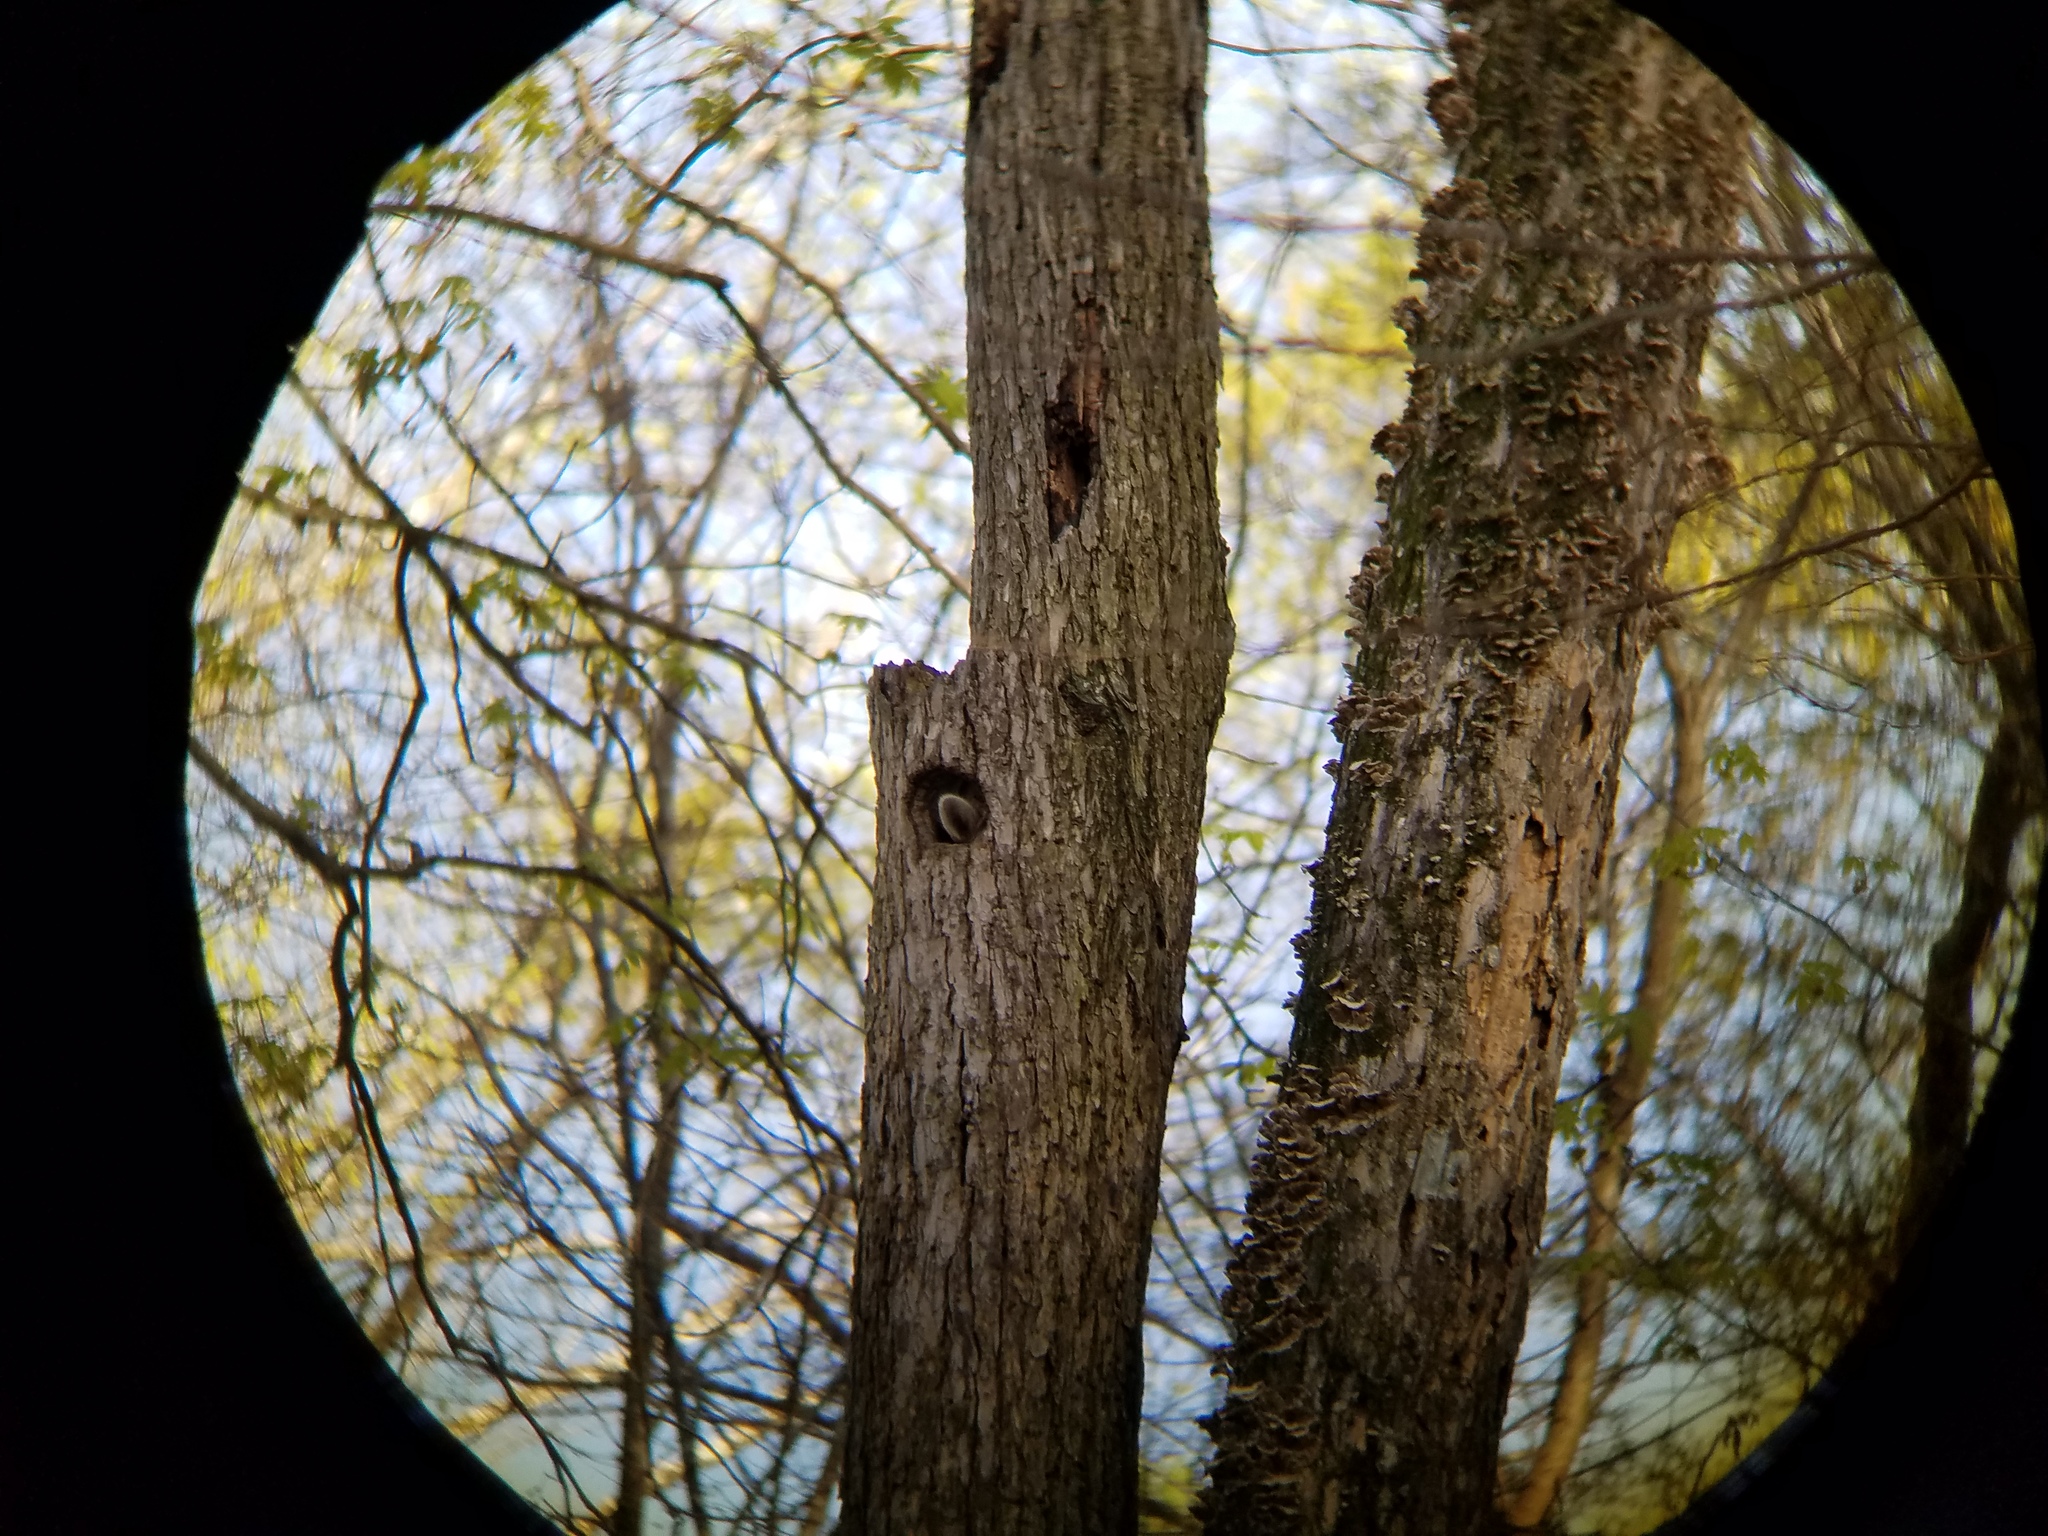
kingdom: Animalia
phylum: Chordata
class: Mammalia
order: Carnivora
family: Procyonidae
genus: Procyon
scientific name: Procyon lotor
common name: Raccoon
